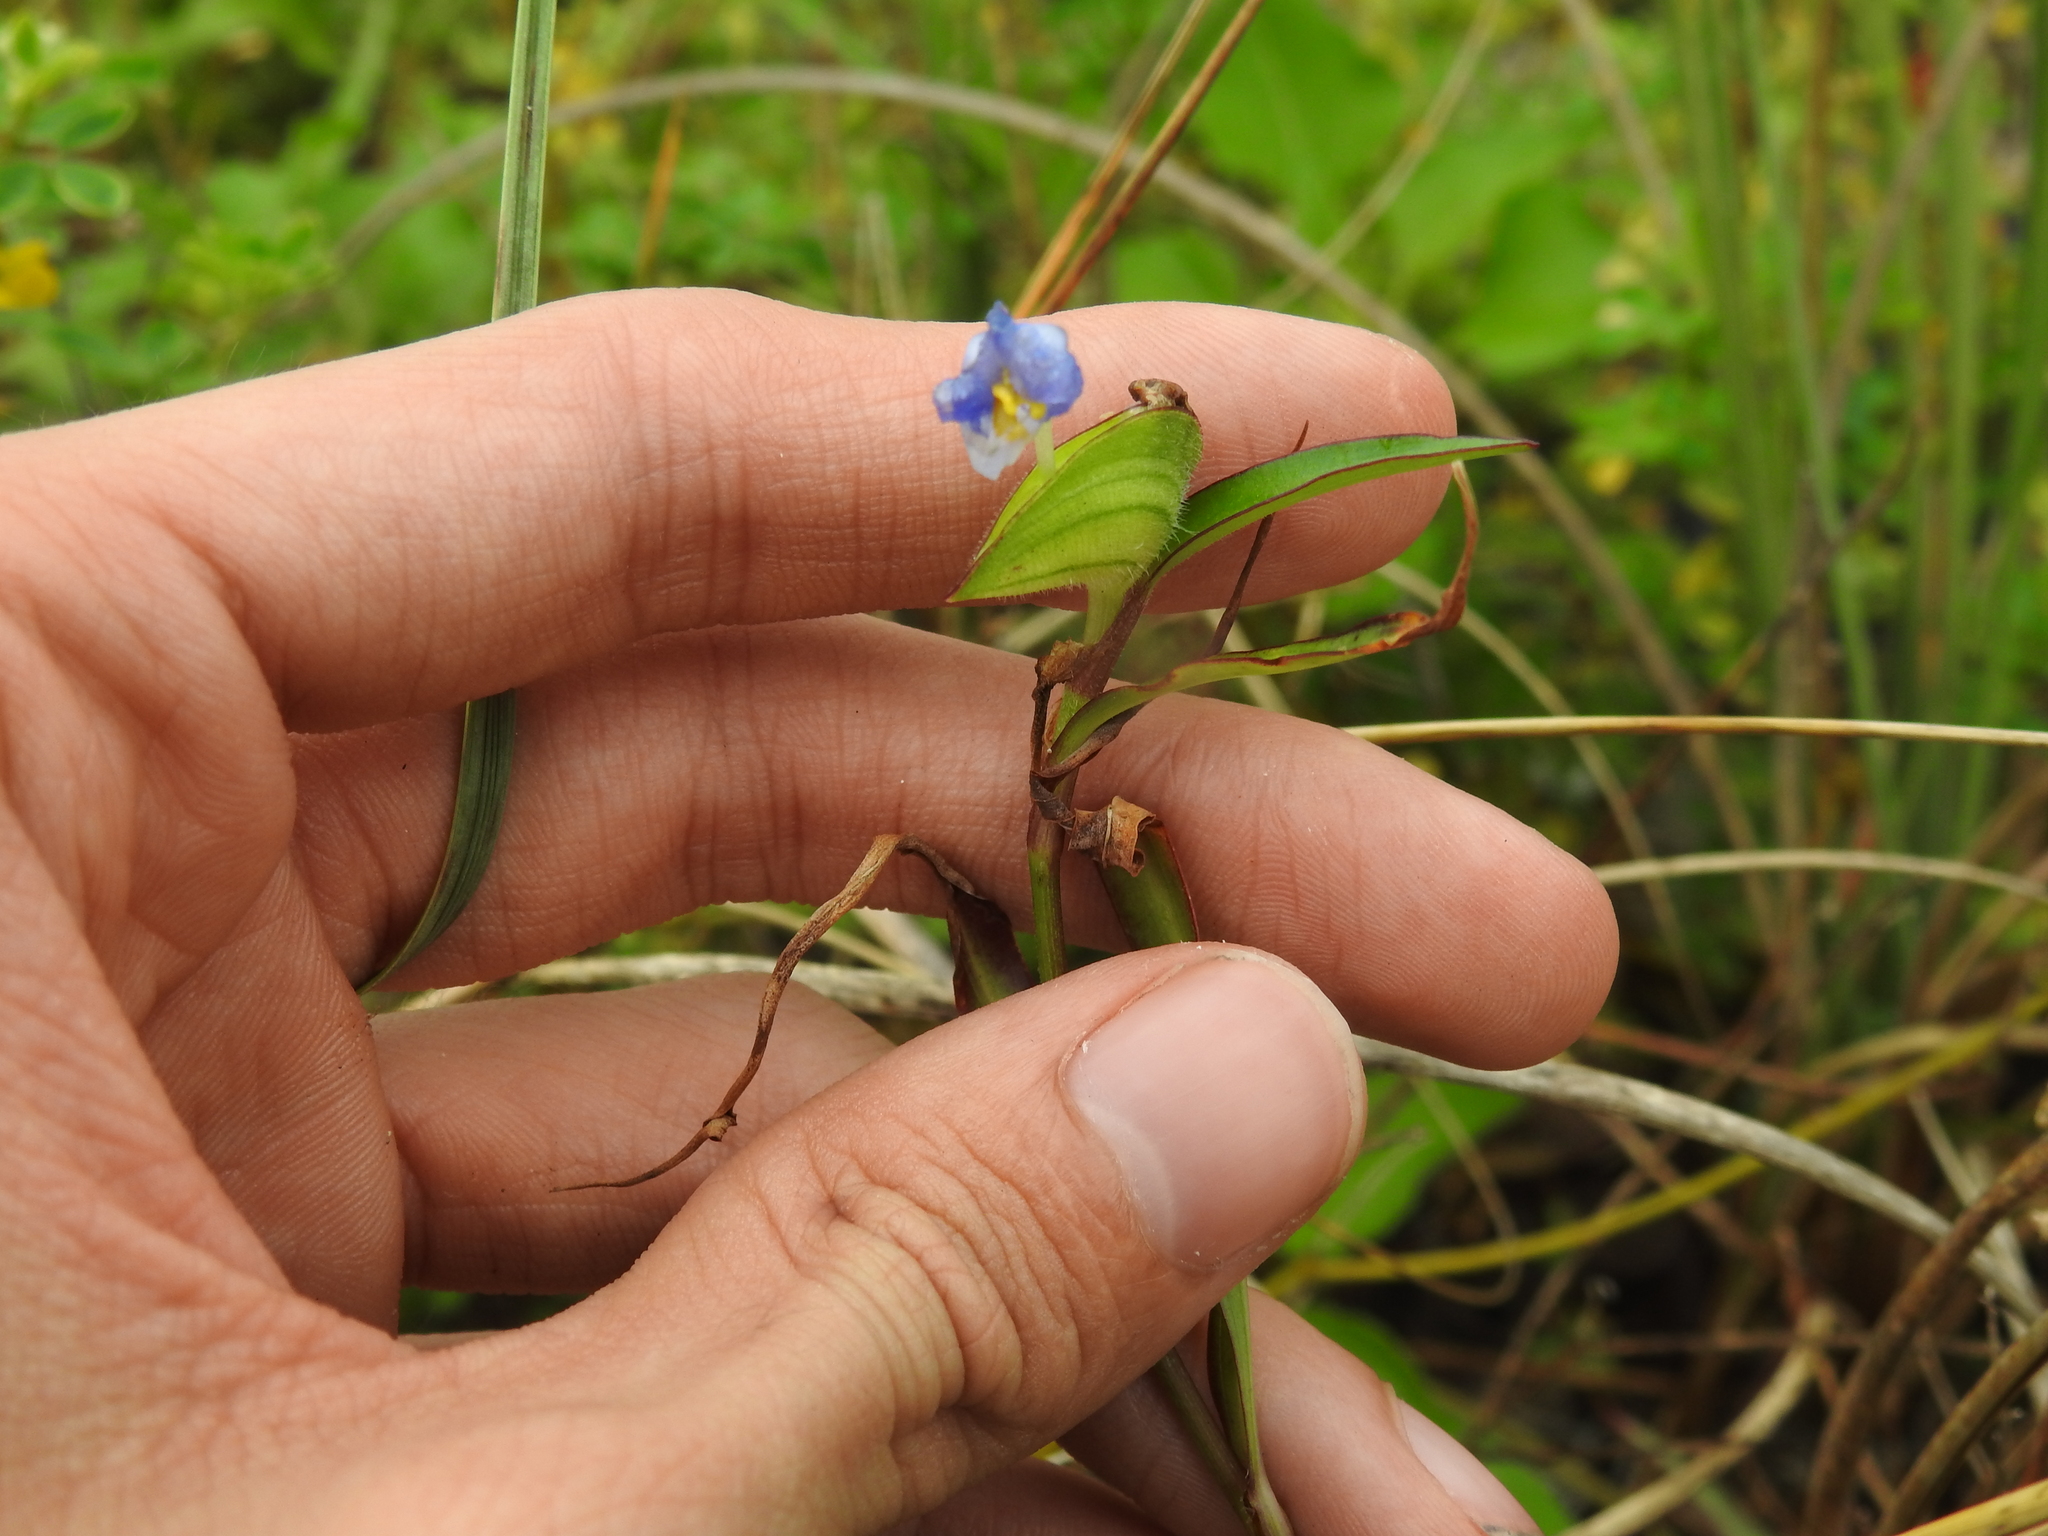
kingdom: Plantae
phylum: Tracheophyta
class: Liliopsida
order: Commelinales
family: Commelinaceae
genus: Commelina
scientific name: Commelina erecta
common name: Blousel blommetjie
